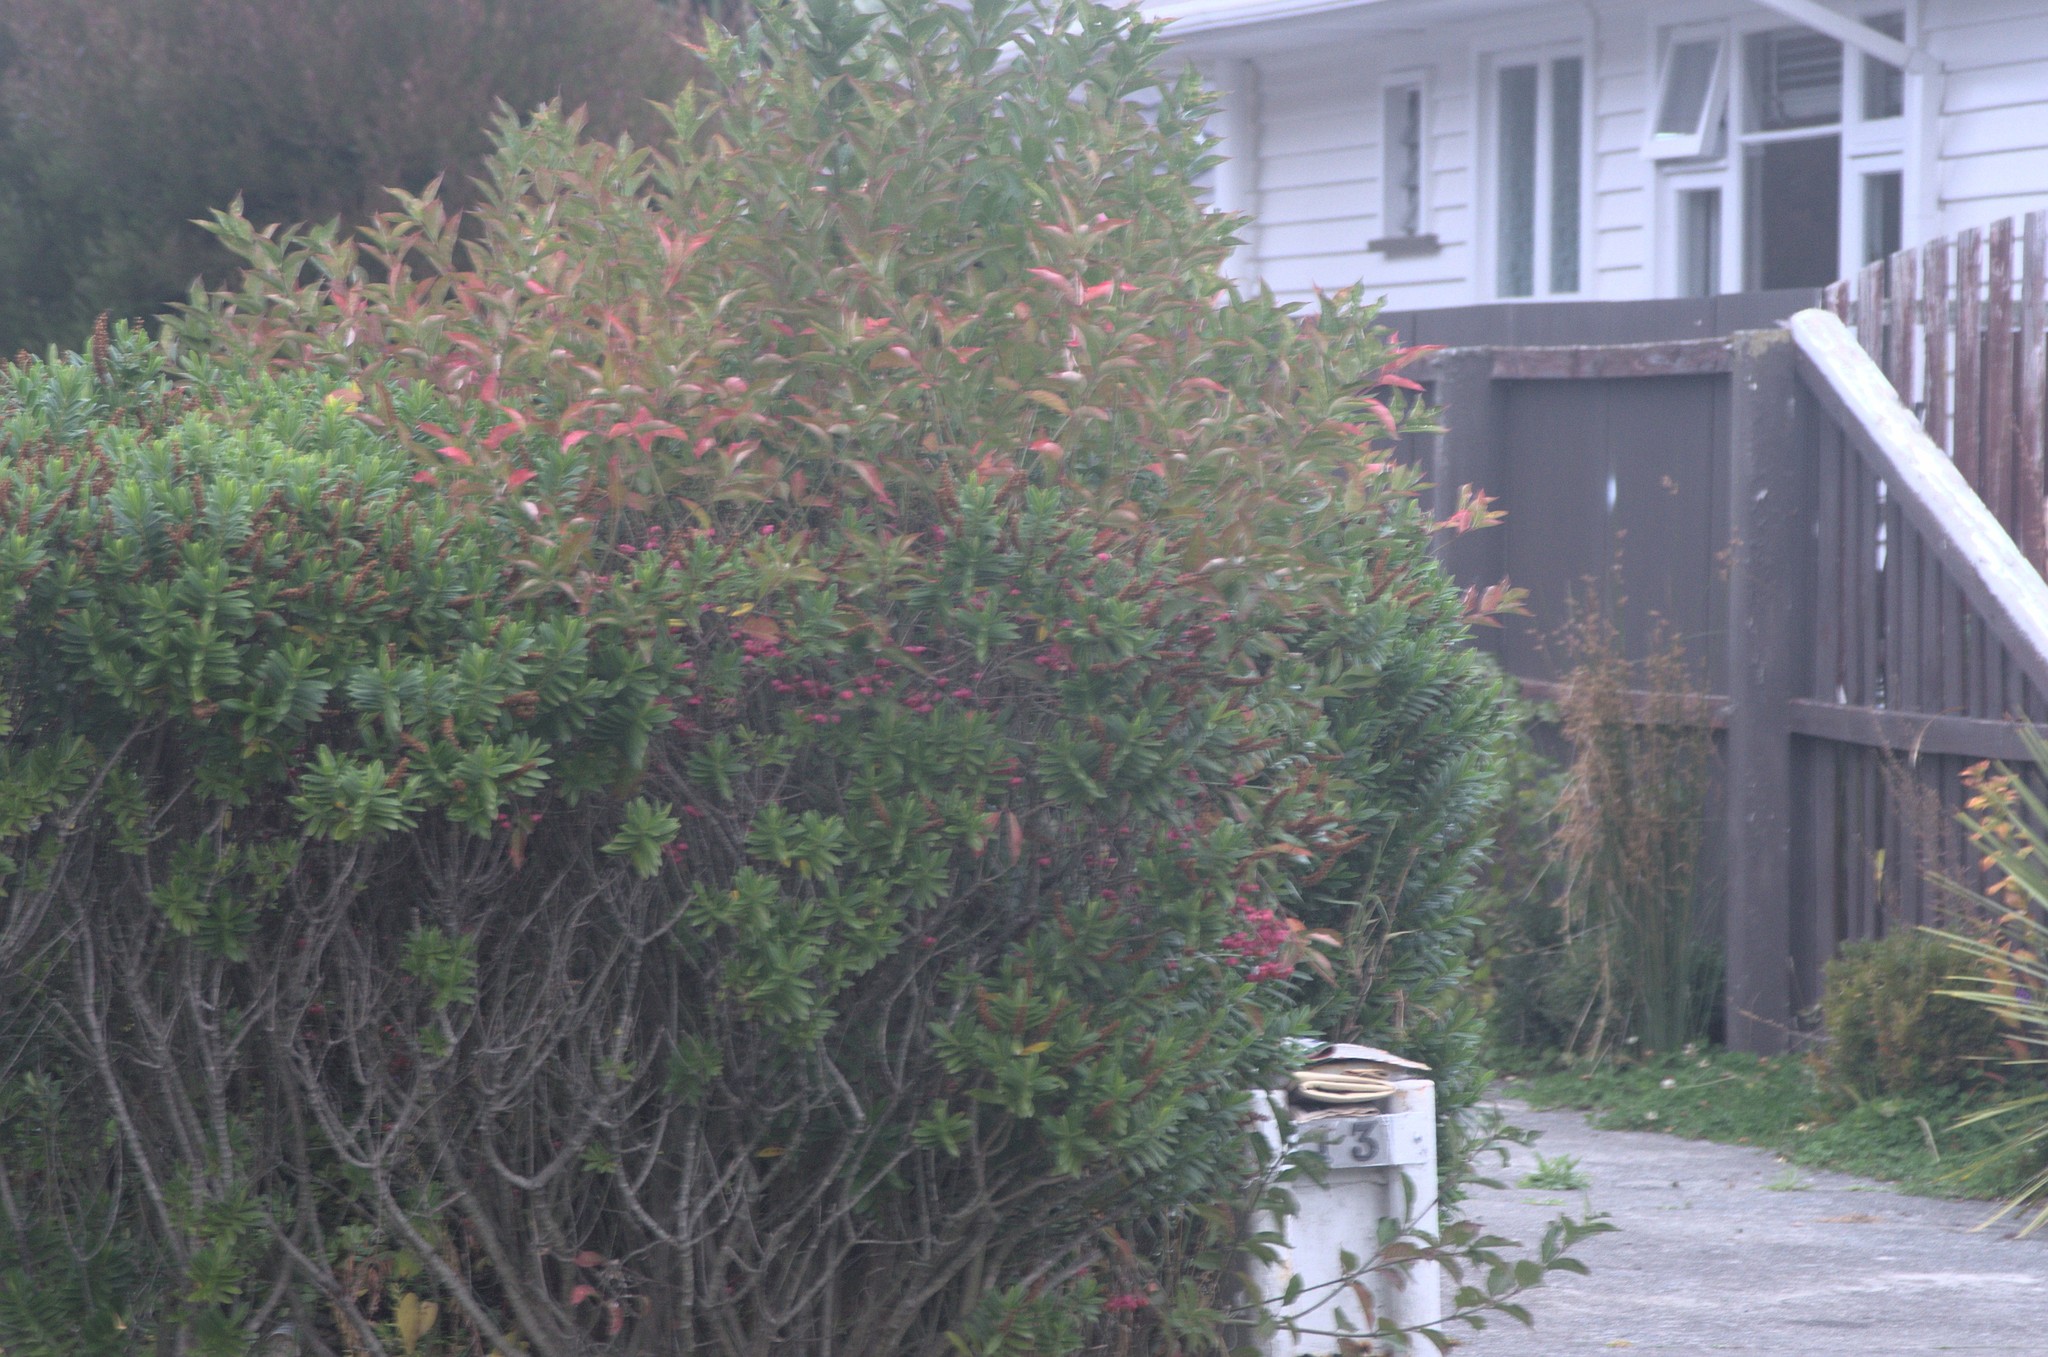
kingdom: Plantae
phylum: Tracheophyta
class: Magnoliopsida
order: Celastrales
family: Celastraceae
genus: Euonymus
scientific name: Euonymus europaeus
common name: Spindle
